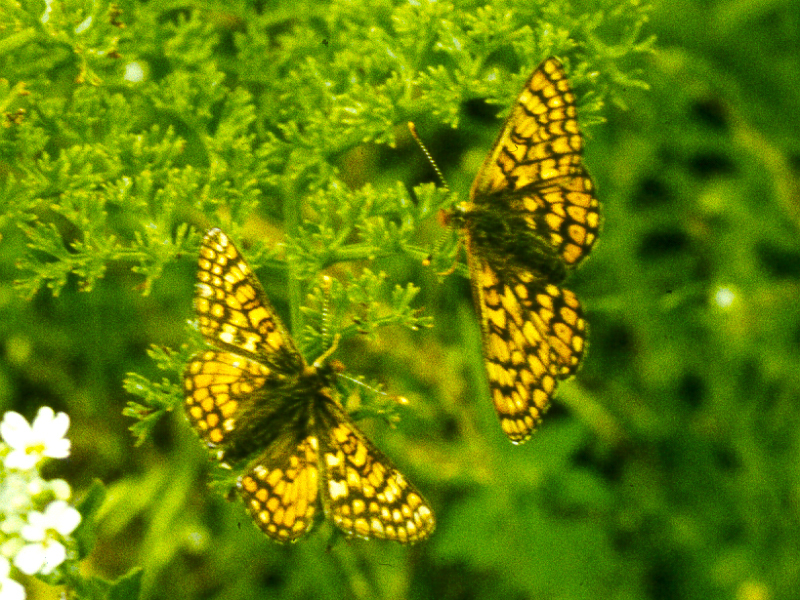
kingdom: Animalia
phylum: Arthropoda
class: Insecta
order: Lepidoptera
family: Nymphalidae
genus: Euphydryas
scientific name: Euphydryas asiatica
